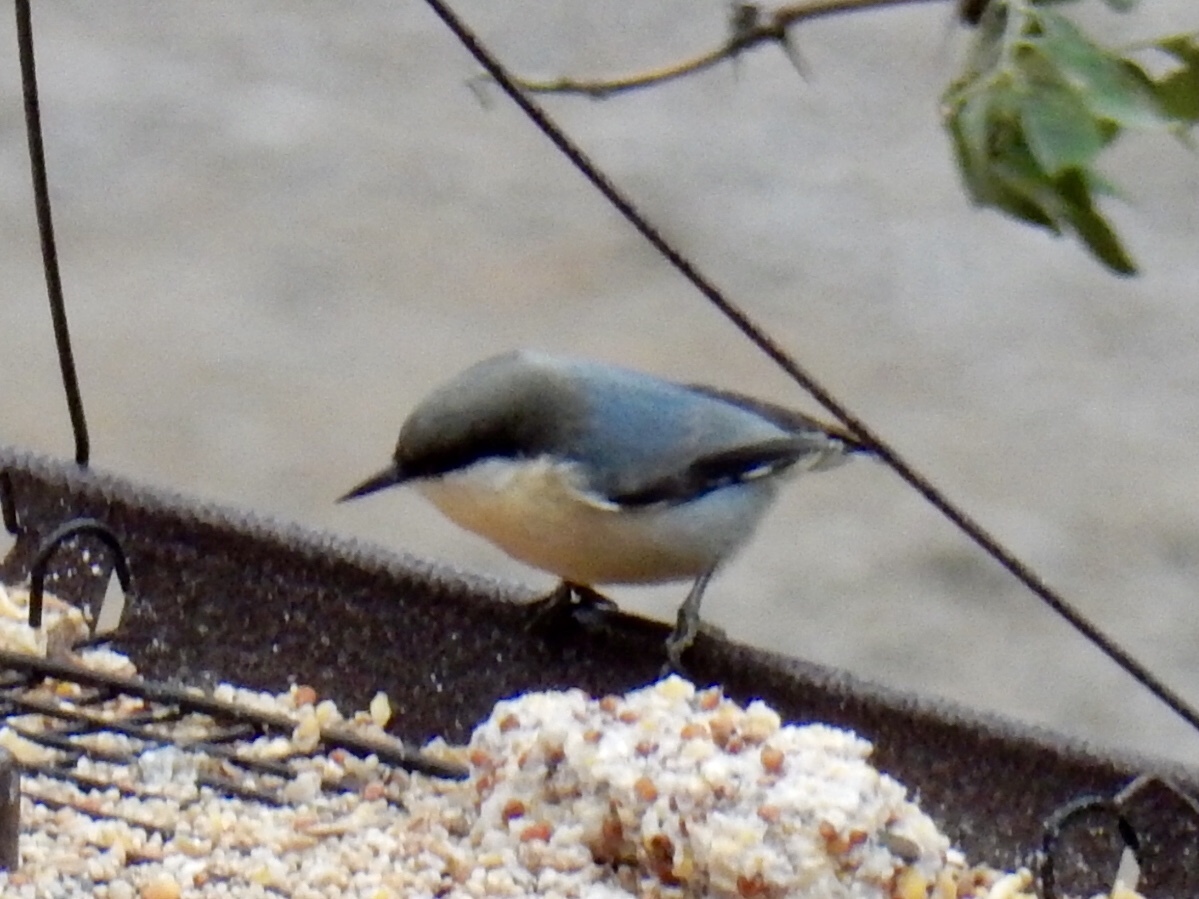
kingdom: Animalia
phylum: Chordata
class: Aves
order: Passeriformes
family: Sittidae
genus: Sitta
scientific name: Sitta pygmaea
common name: Pygmy nuthatch
